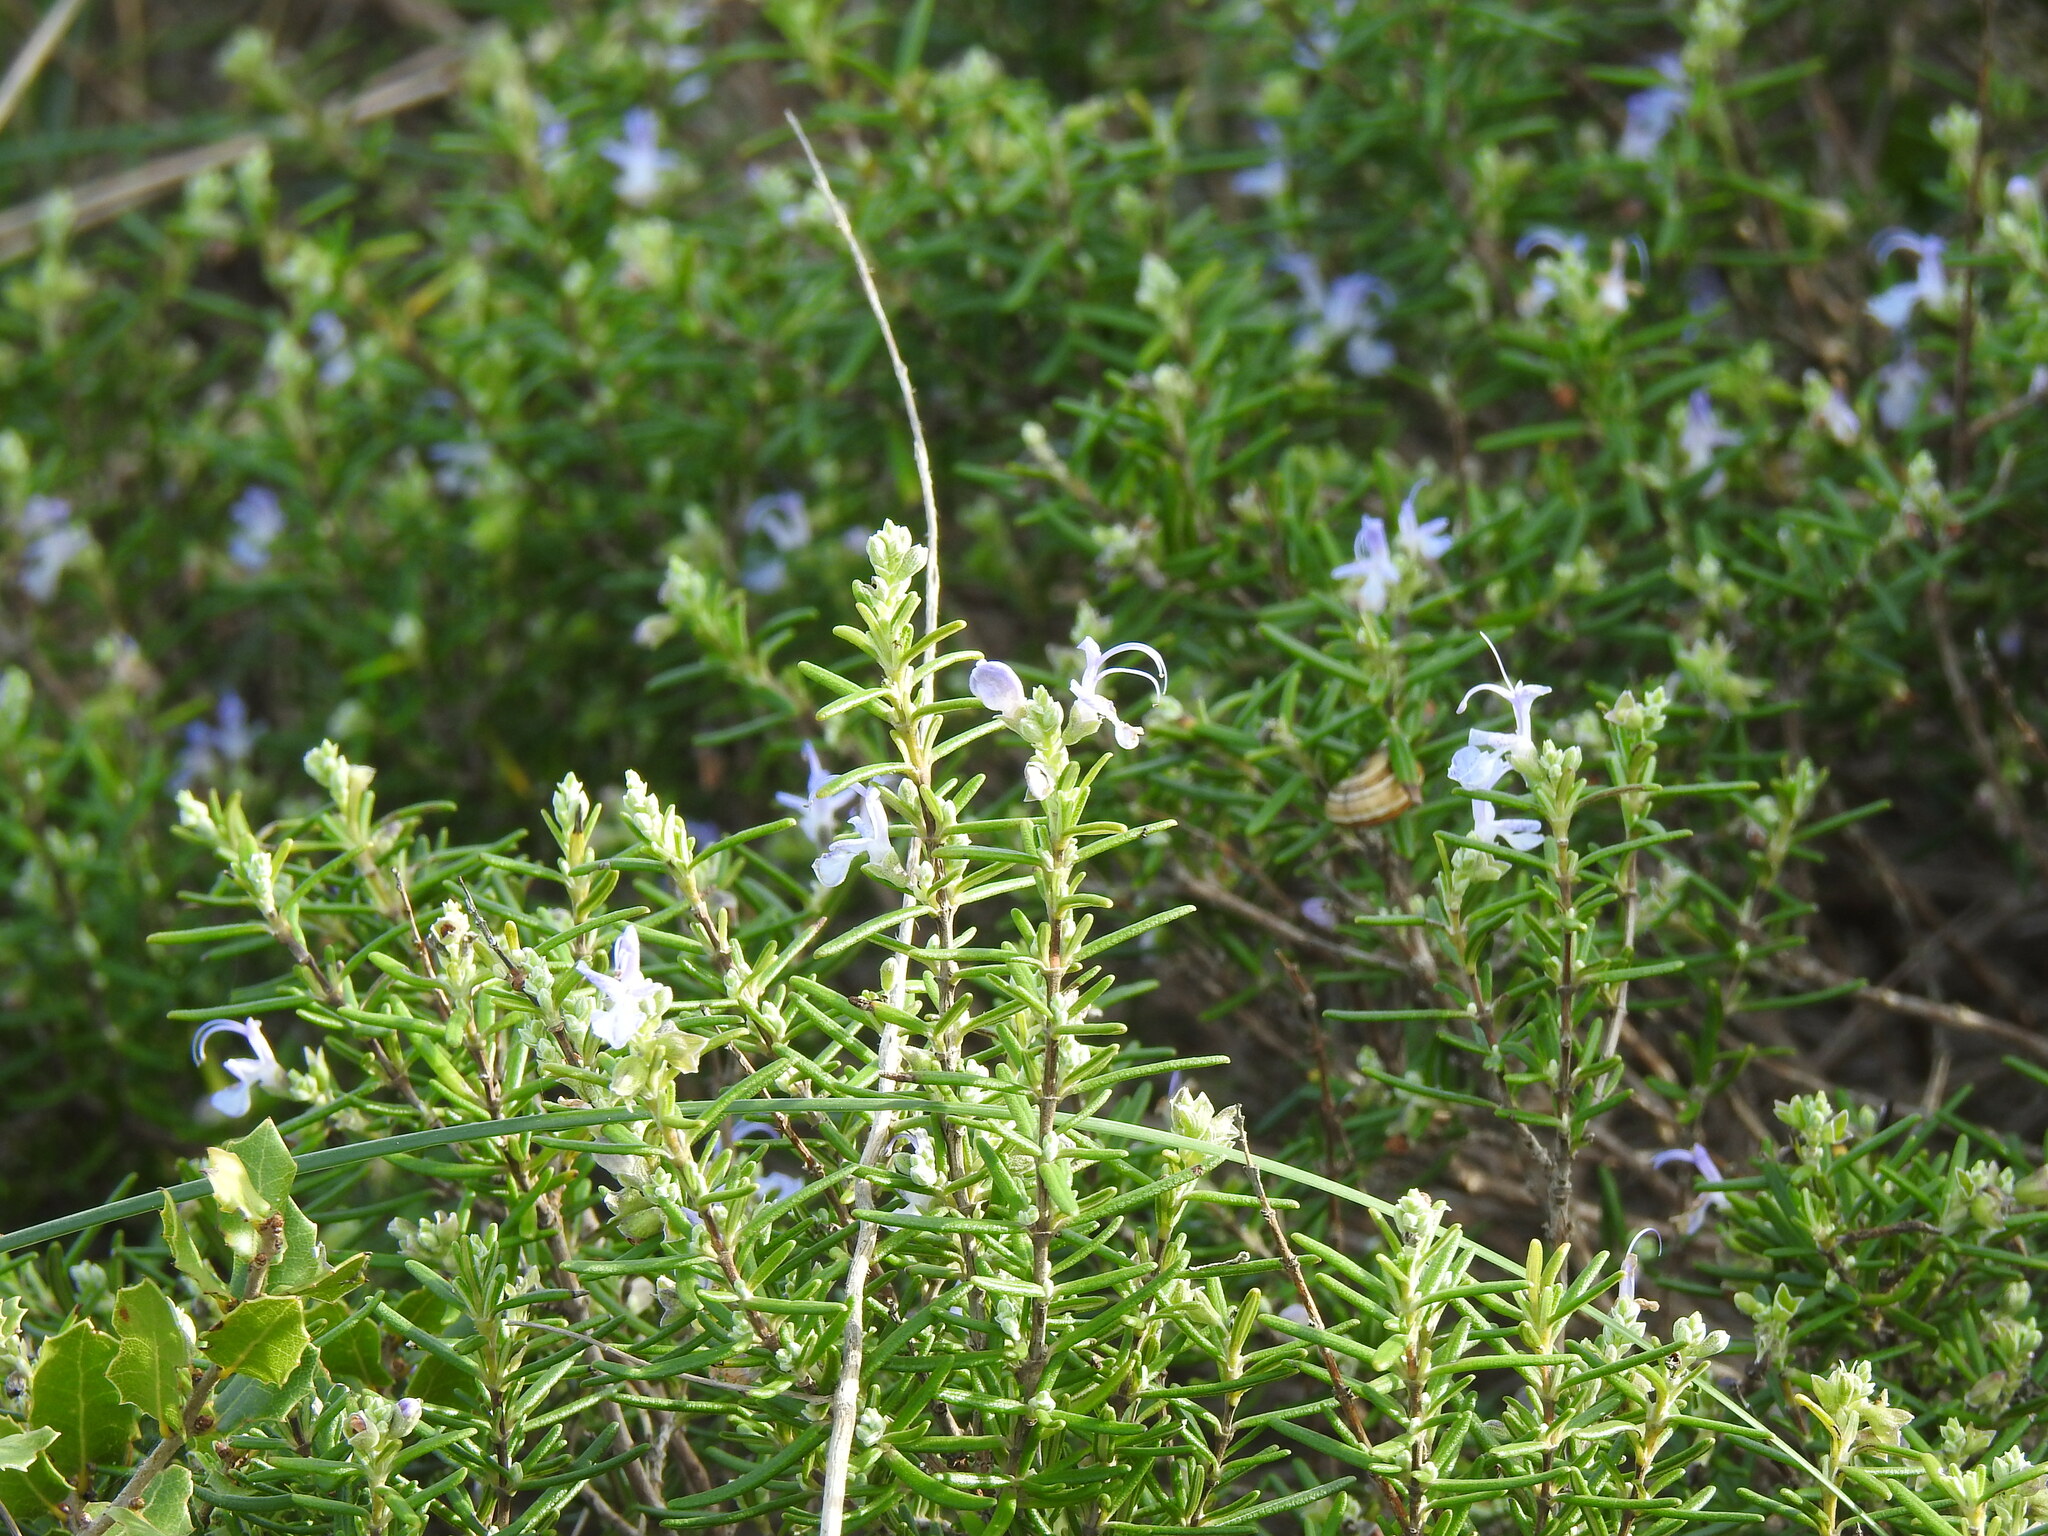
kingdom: Plantae
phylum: Tracheophyta
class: Magnoliopsida
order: Lamiales
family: Lamiaceae
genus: Salvia
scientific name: Salvia rosmarinus
